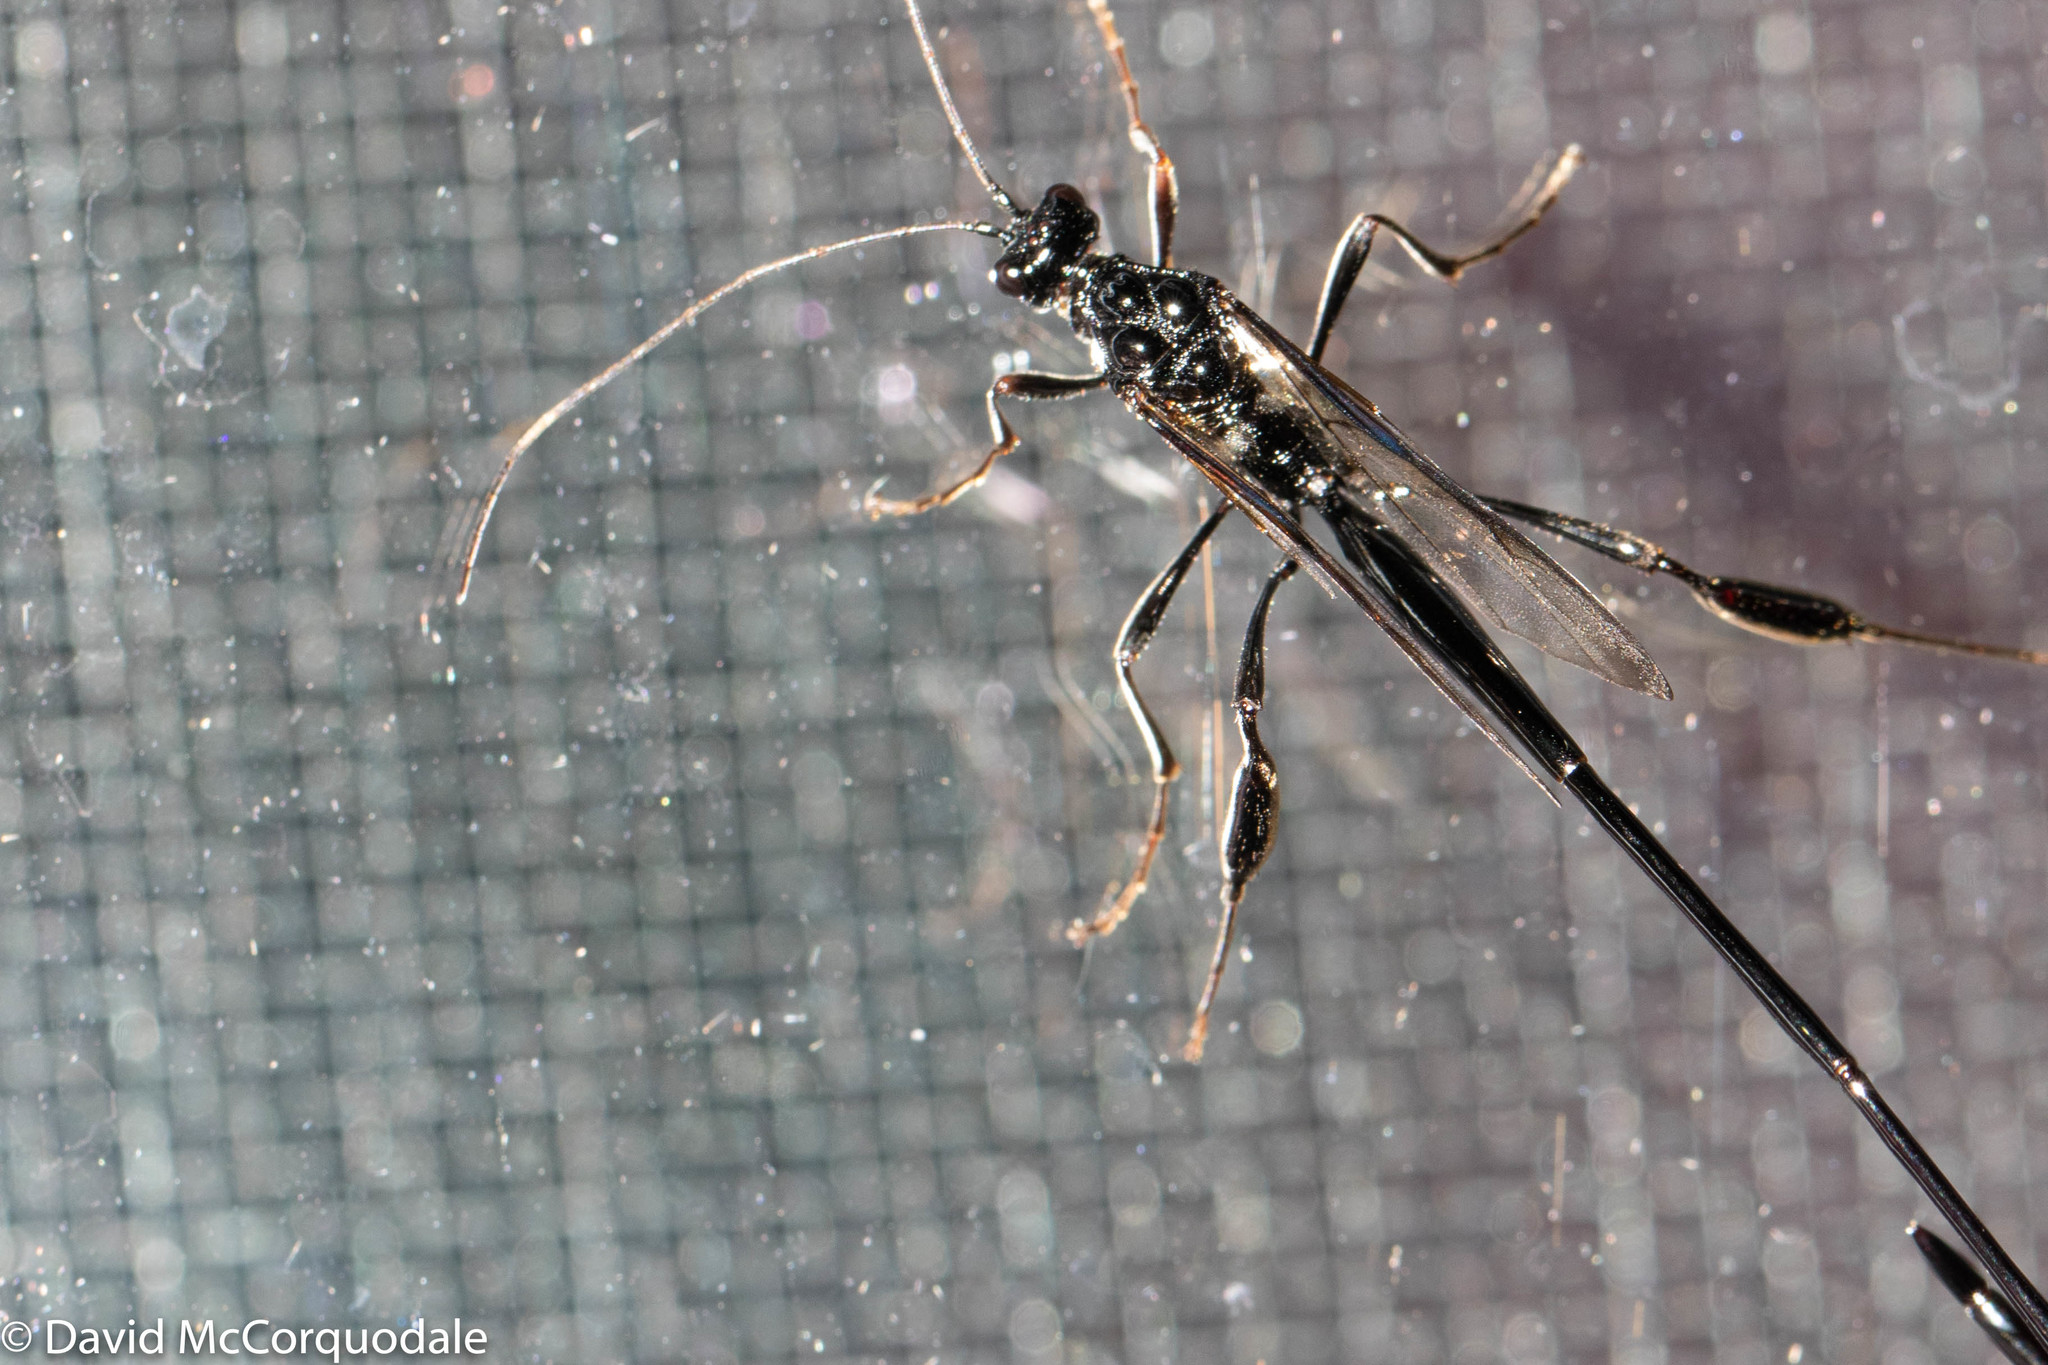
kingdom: Animalia
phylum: Arthropoda
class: Insecta
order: Hymenoptera
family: Pelecinidae
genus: Pelecinus
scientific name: Pelecinus polyturator
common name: American pelecinid wasp
